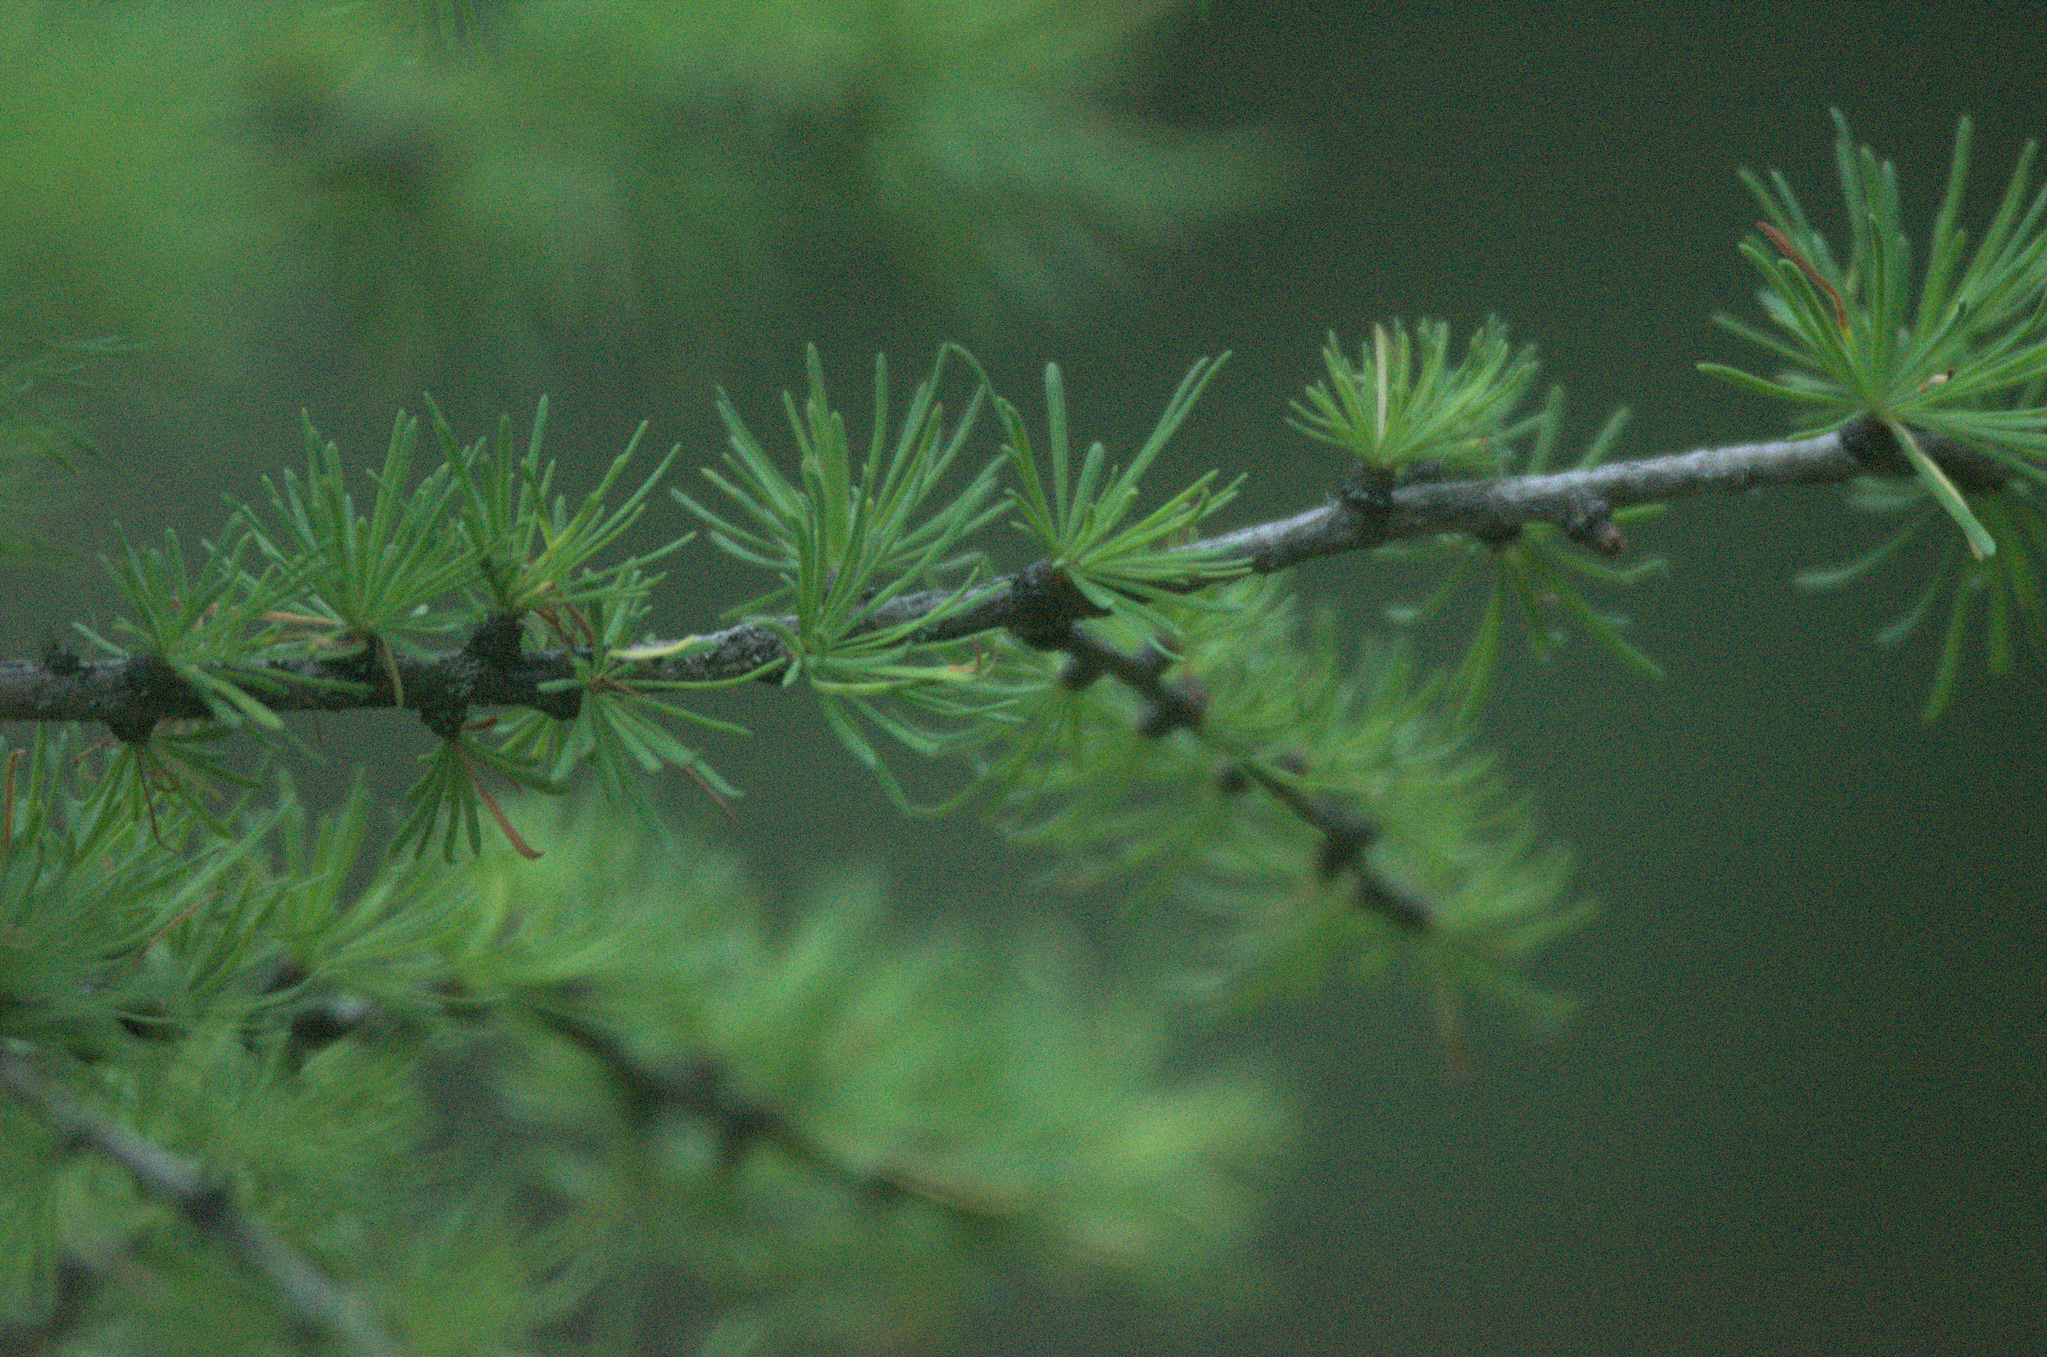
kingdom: Plantae
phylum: Tracheophyta
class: Pinopsida
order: Pinales
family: Pinaceae
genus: Larix
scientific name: Larix sibirica
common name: Siberian larch
